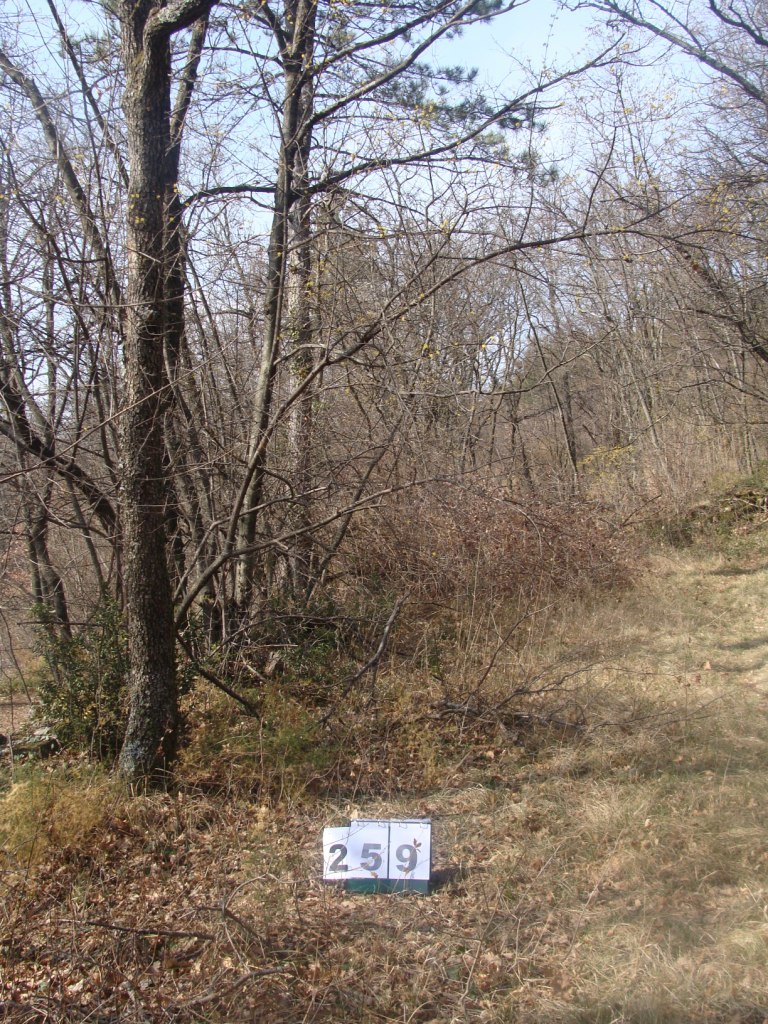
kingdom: Plantae
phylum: Tracheophyta
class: Magnoliopsida
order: Cornales
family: Cornaceae
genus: Cornus
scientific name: Cornus mas
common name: Cornelian-cherry
